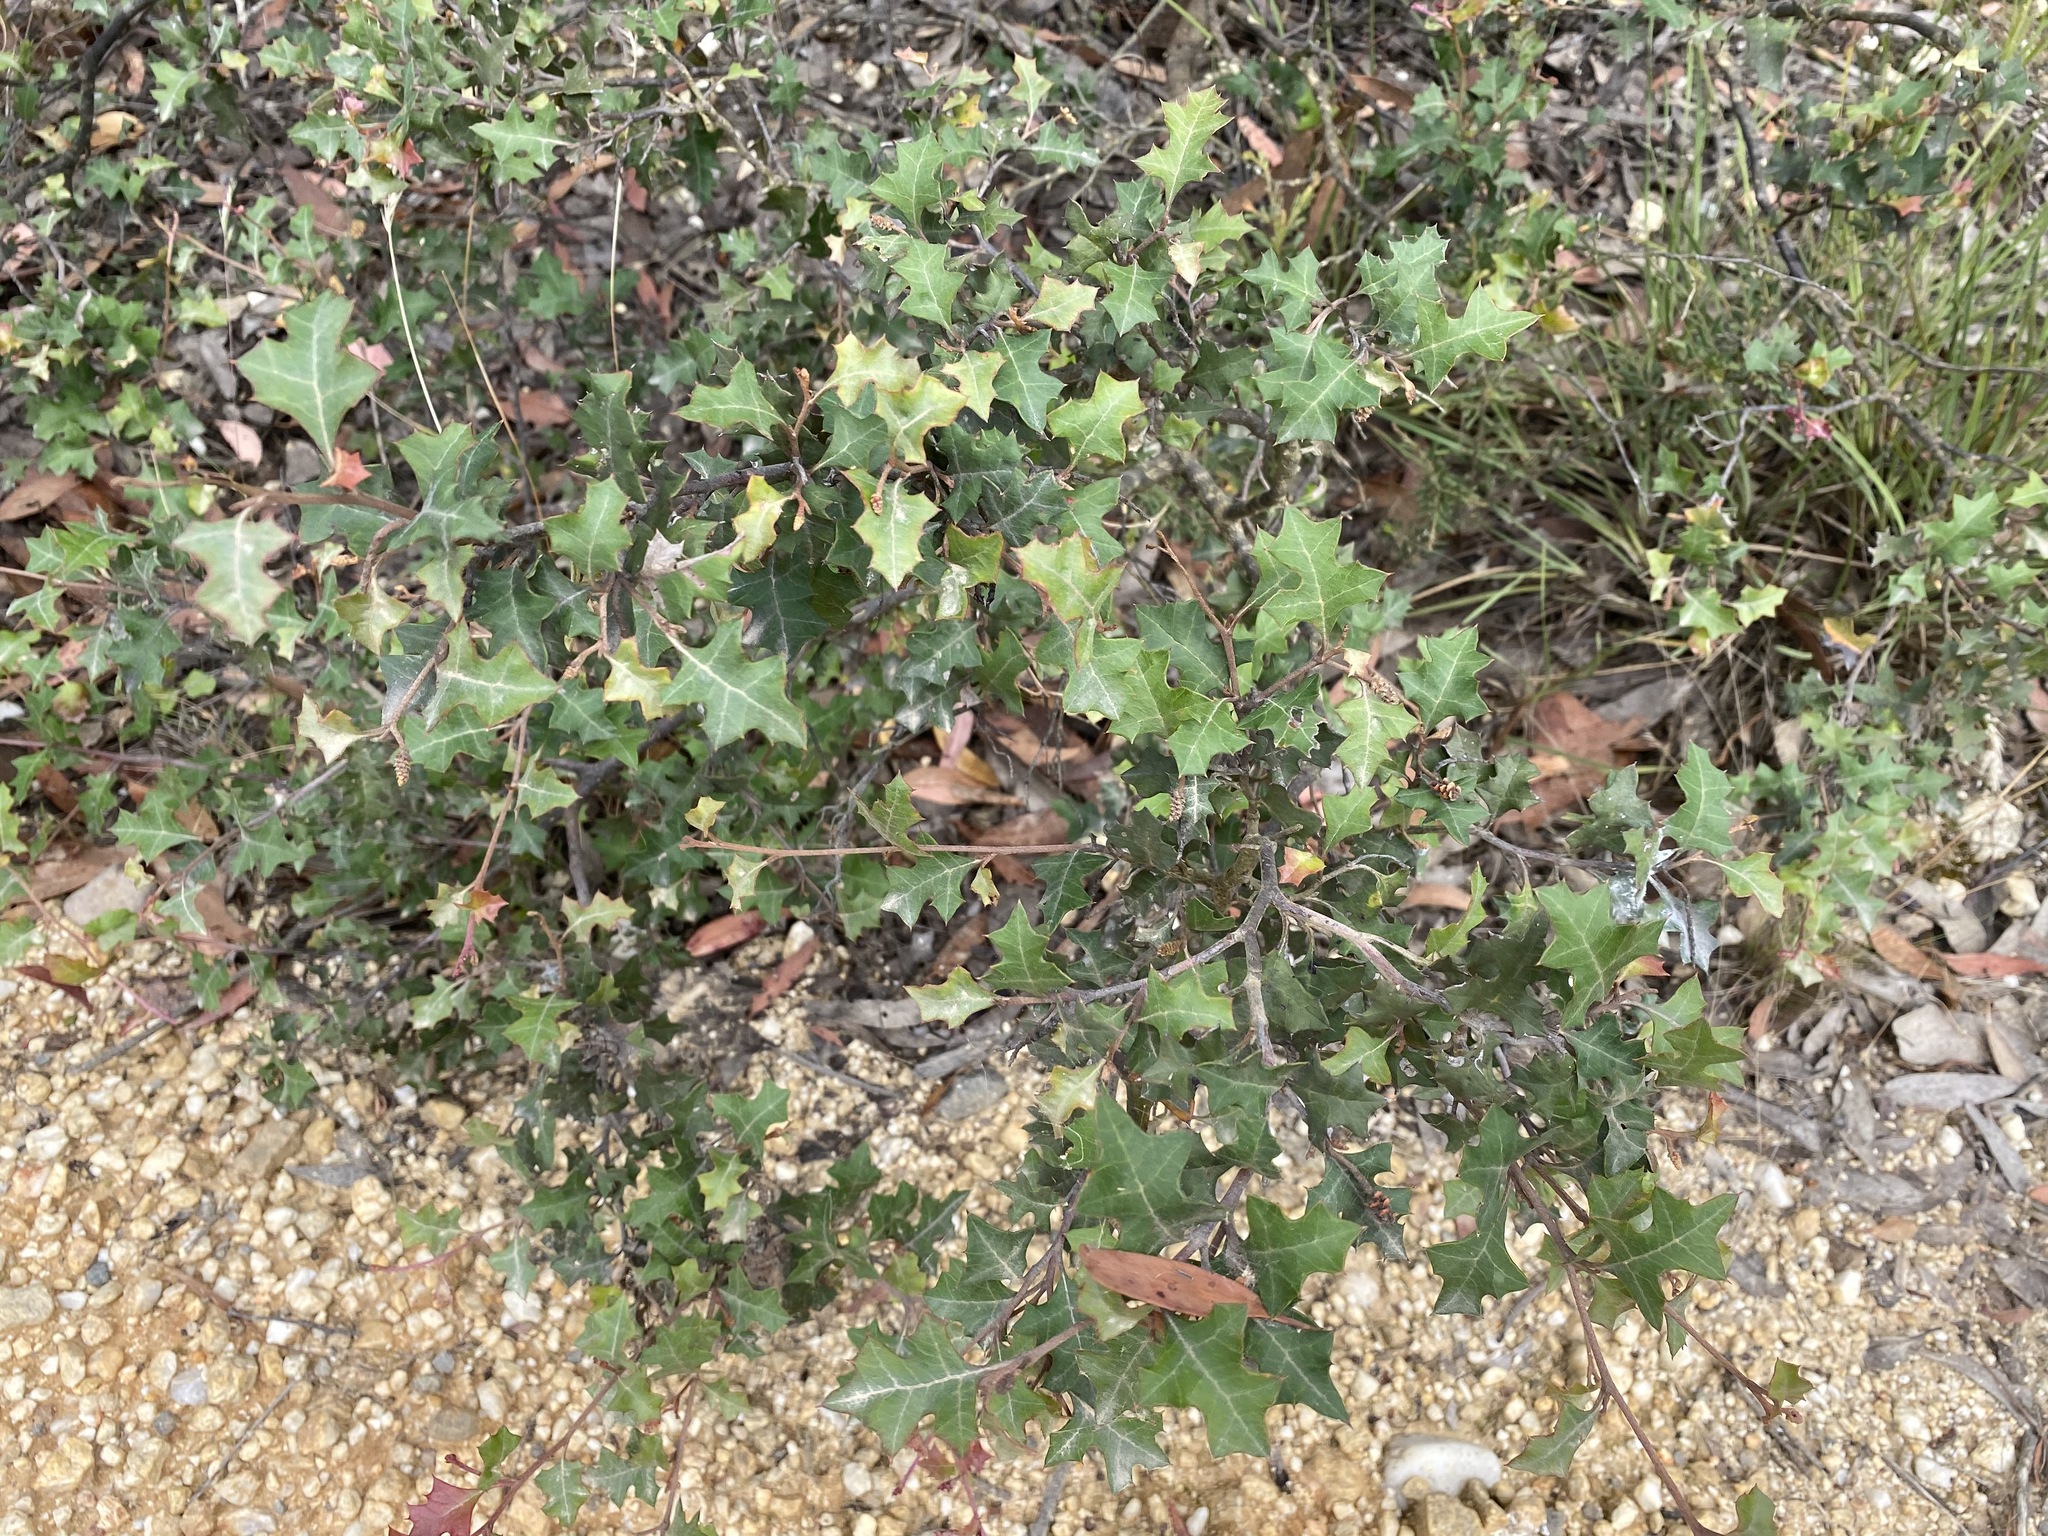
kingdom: Plantae
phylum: Tracheophyta
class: Magnoliopsida
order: Proteales
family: Proteaceae
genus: Grevillea
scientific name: Grevillea steiglitziana
